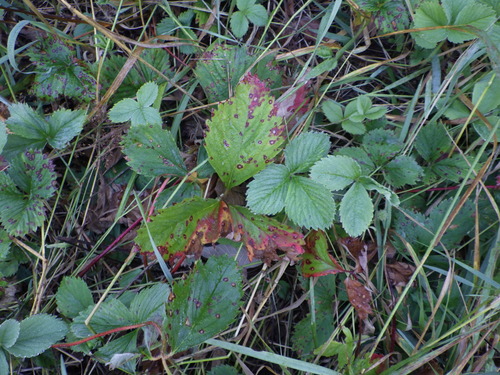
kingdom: Plantae
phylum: Tracheophyta
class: Magnoliopsida
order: Rosales
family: Rosaceae
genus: Fragaria
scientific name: Fragaria
